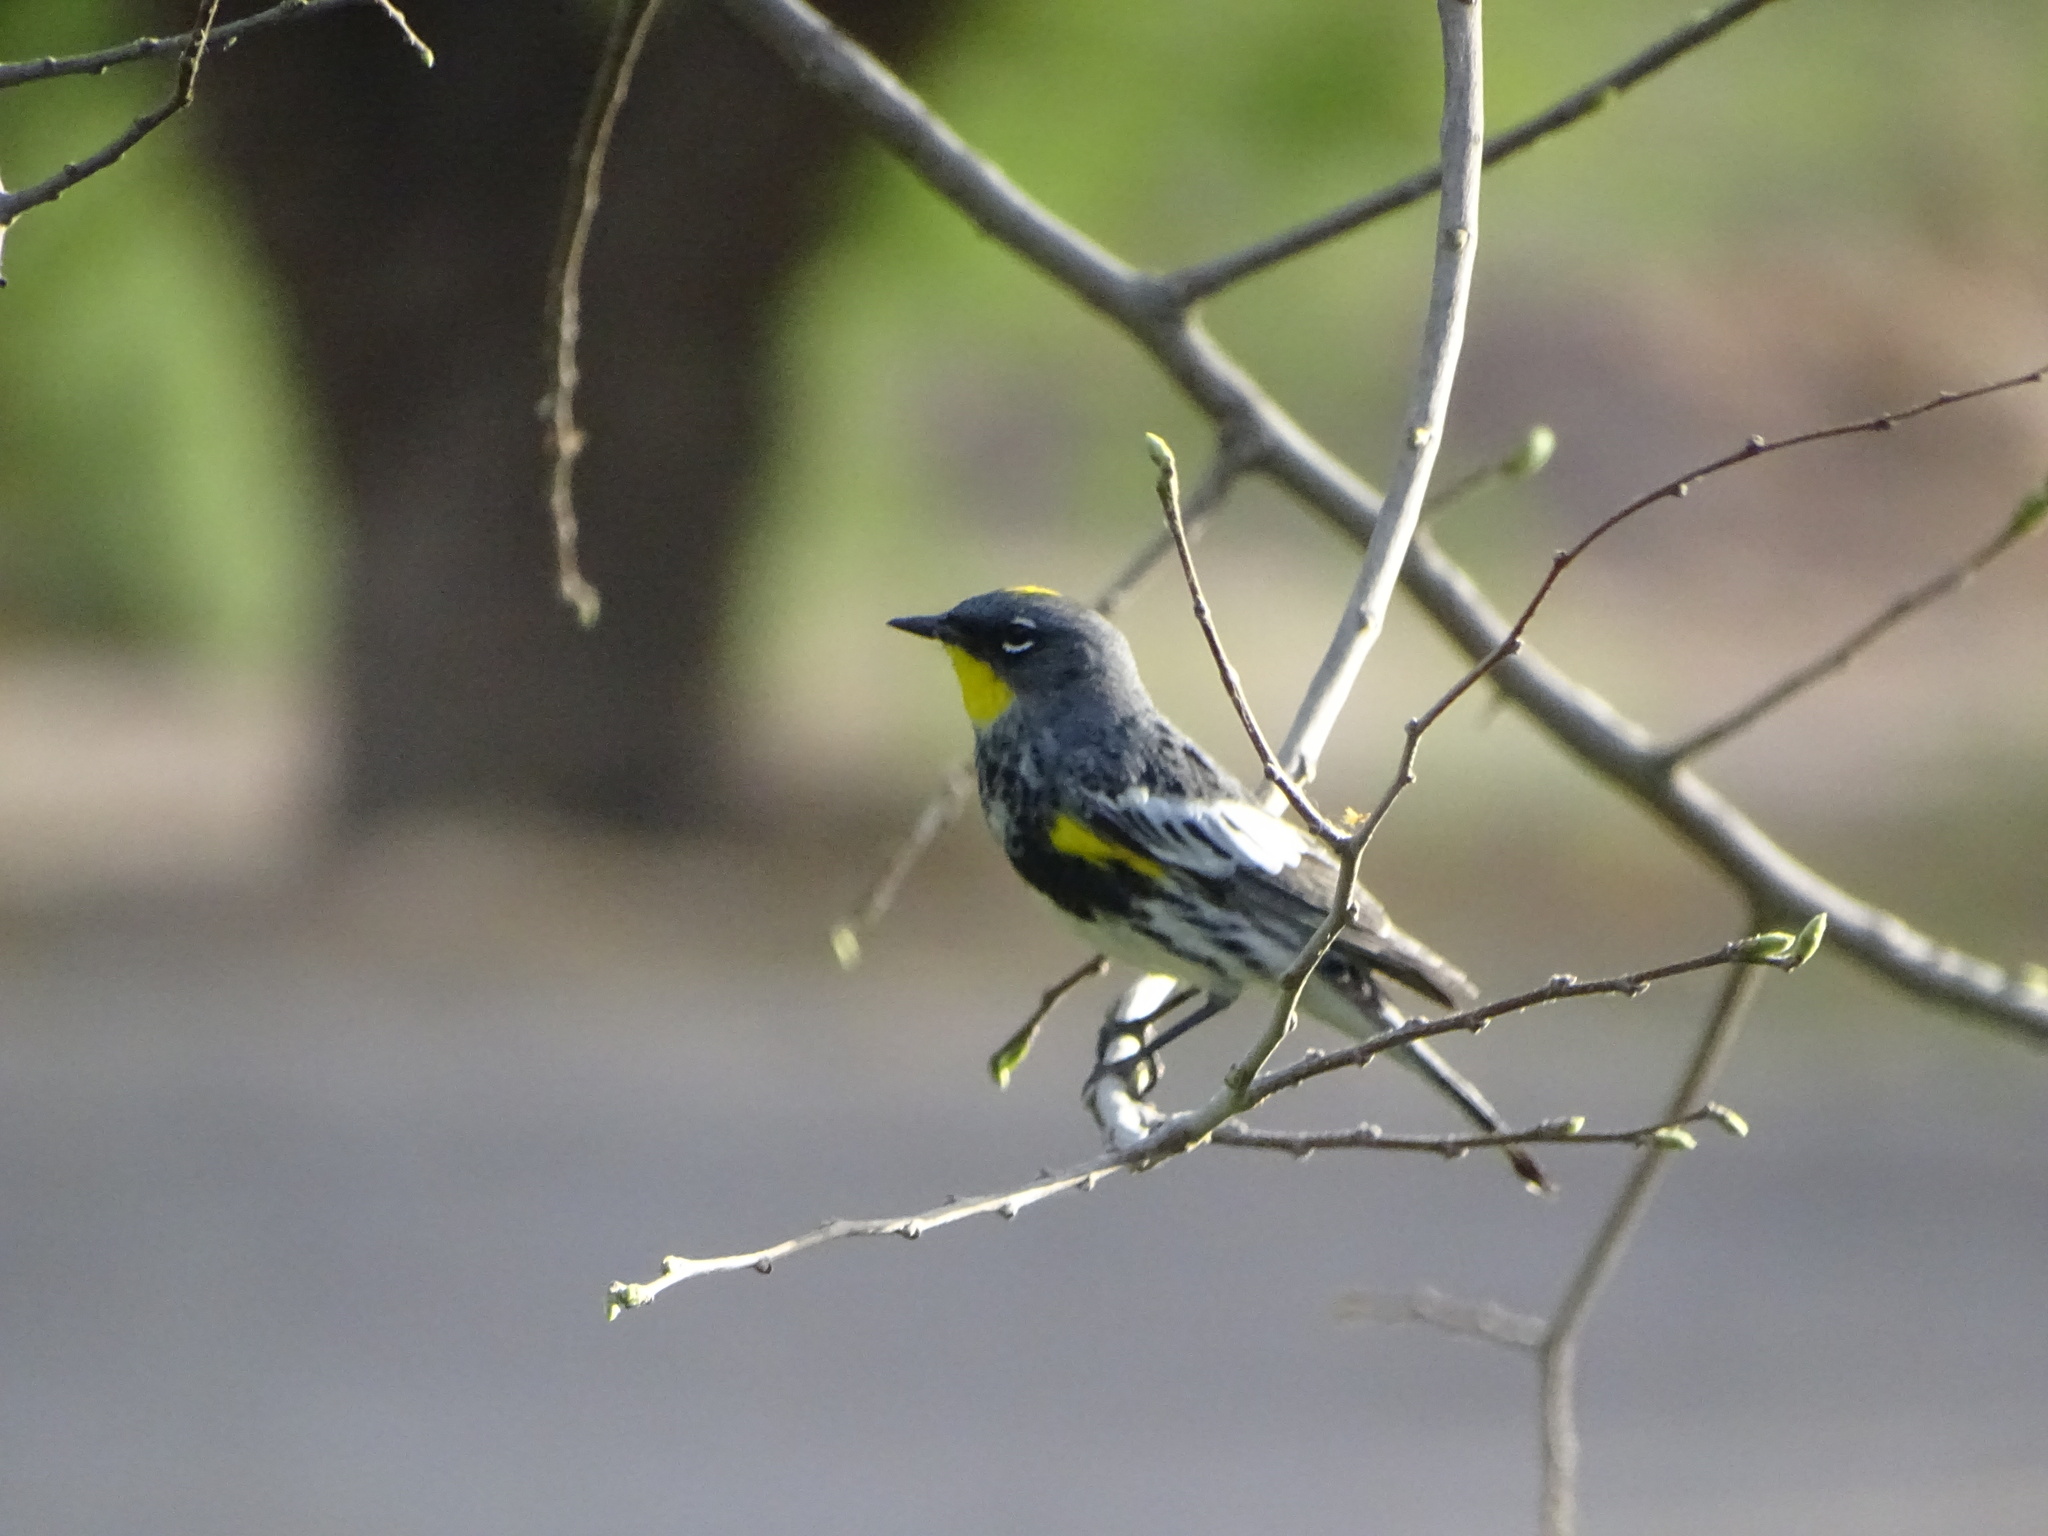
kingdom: Animalia
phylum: Chordata
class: Aves
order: Passeriformes
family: Parulidae
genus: Setophaga
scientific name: Setophaga coronata
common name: Myrtle warbler
